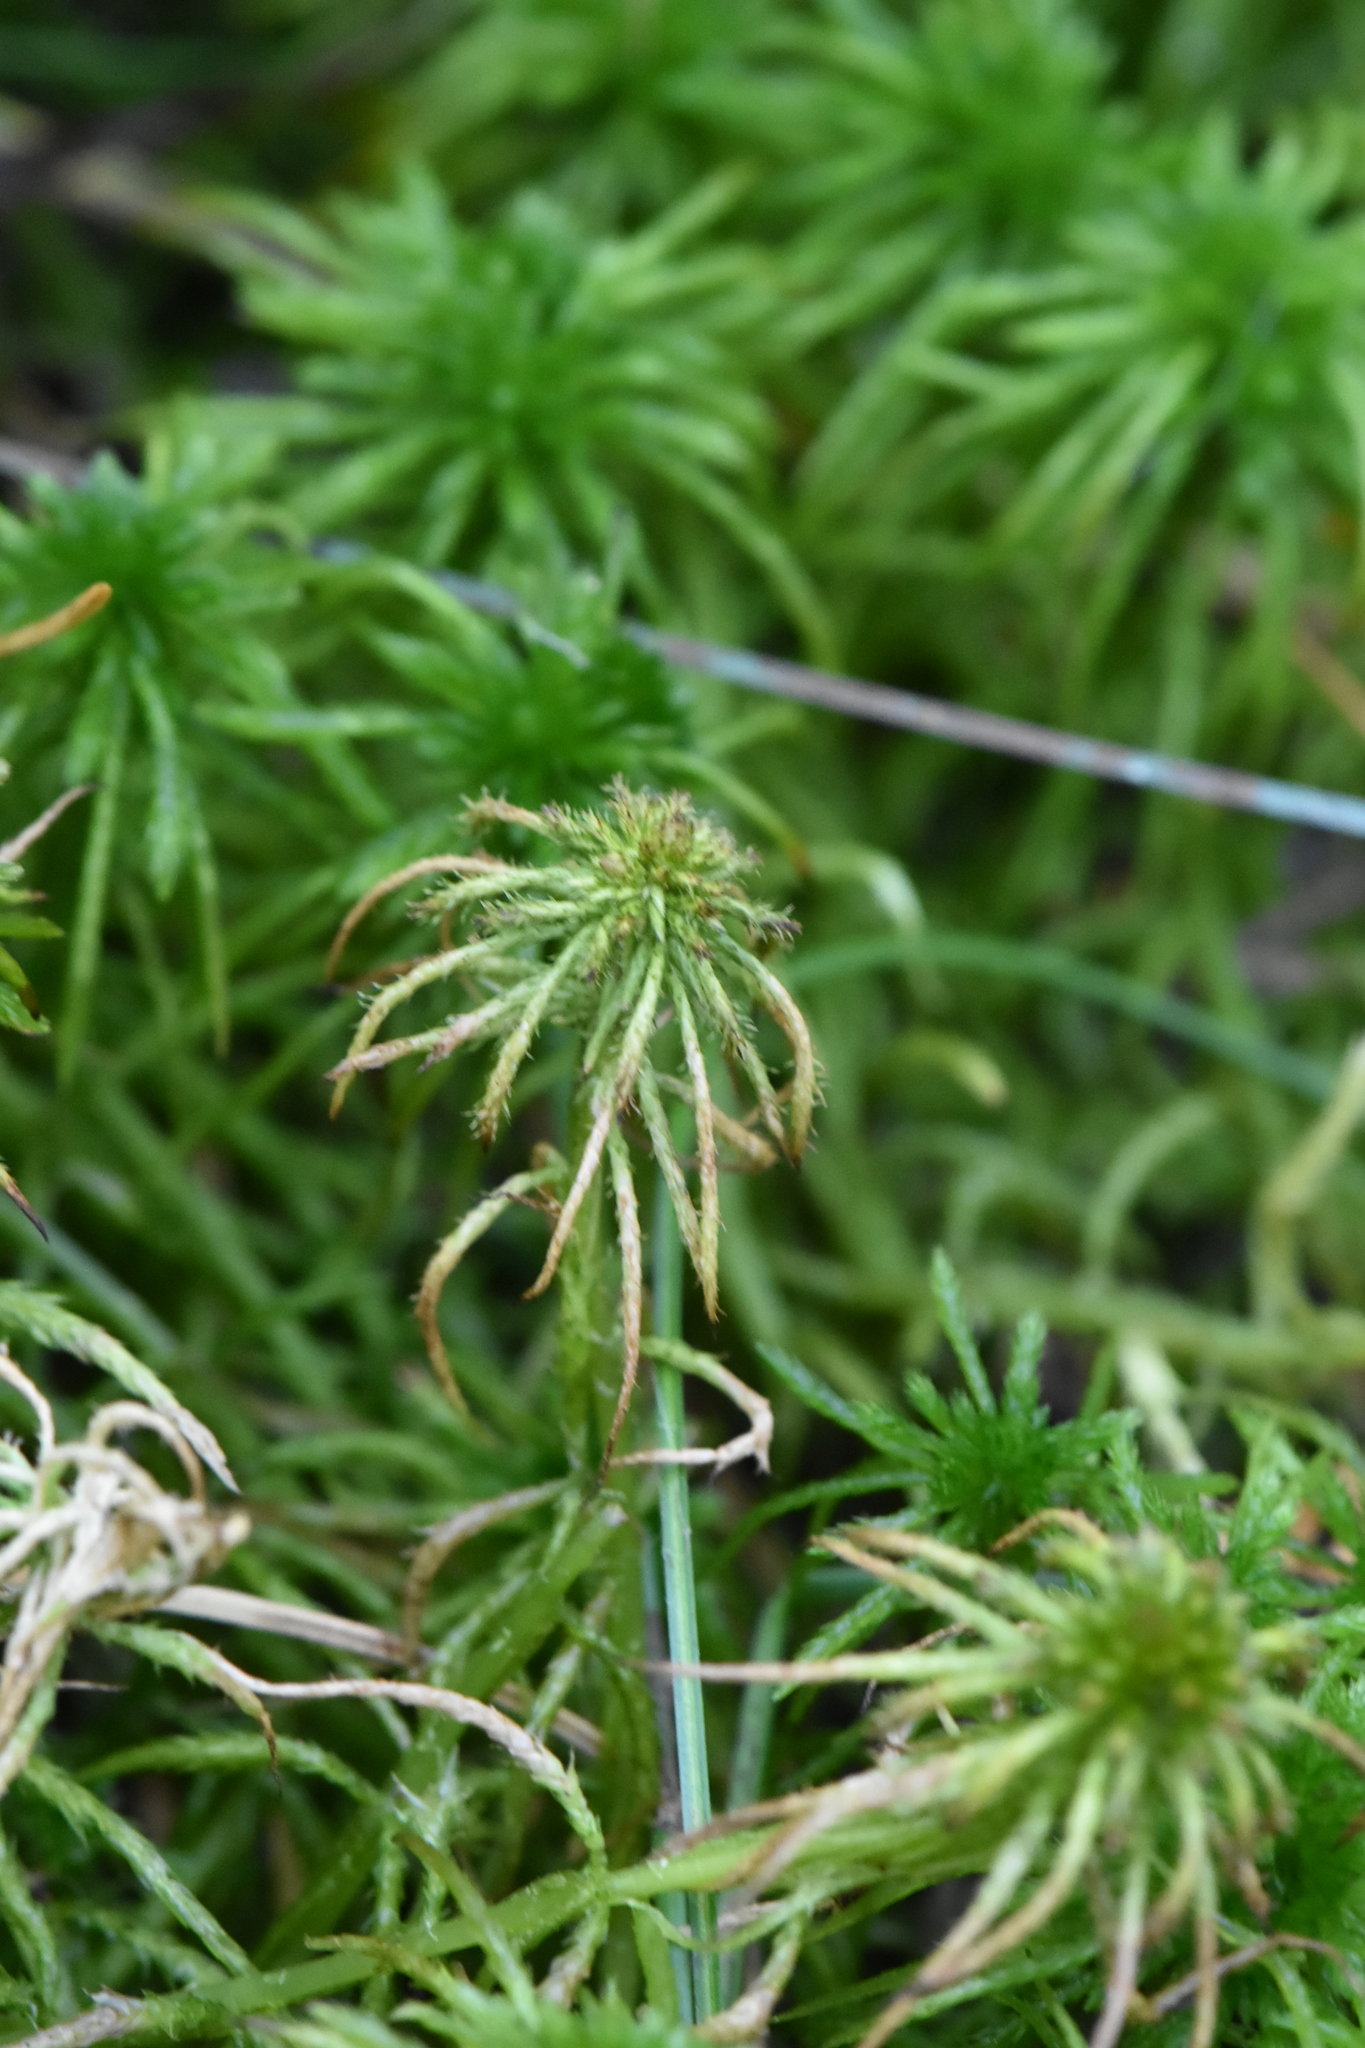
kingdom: Plantae
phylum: Bryophyta
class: Sphagnopsida
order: Sphagnales
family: Sphagnaceae
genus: Sphagnum
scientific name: Sphagnum squarrosum
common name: Shaggy peat moss
